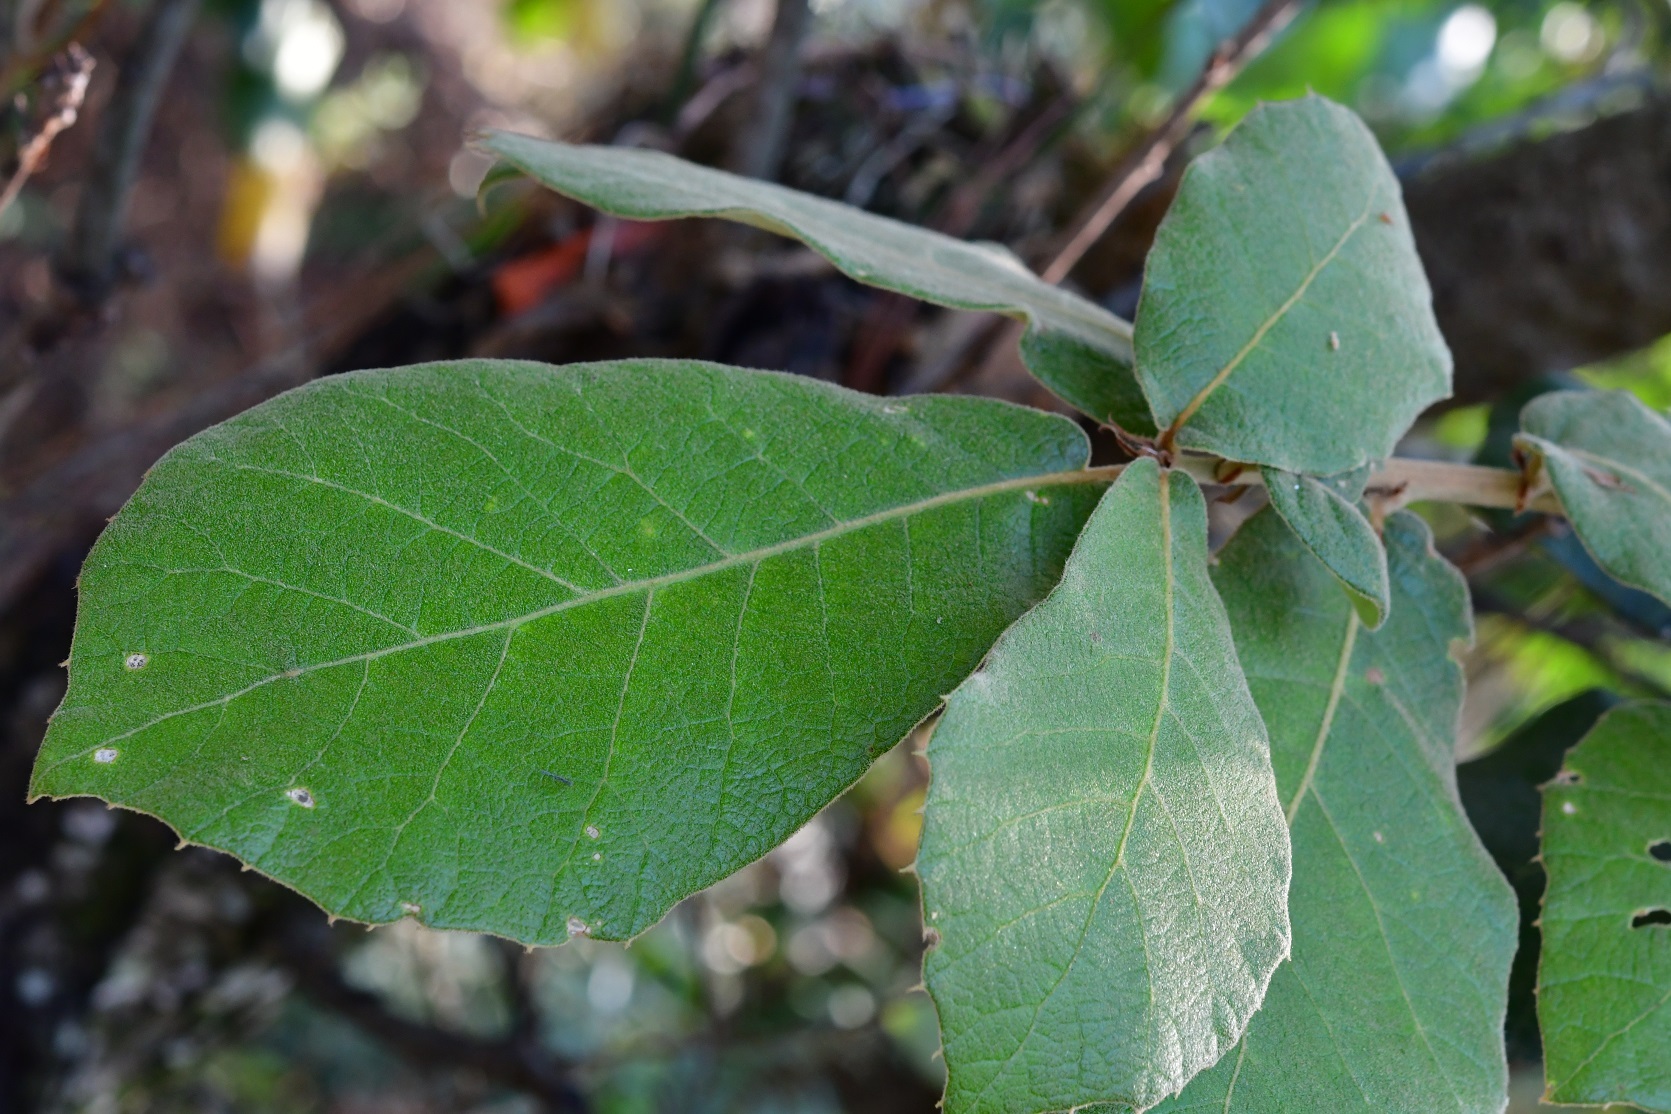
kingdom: Plantae
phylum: Tracheophyta
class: Magnoliopsida
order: Fagales
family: Fagaceae
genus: Quercus
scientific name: Quercus crassifolia
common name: Leather leaf mexican oak
